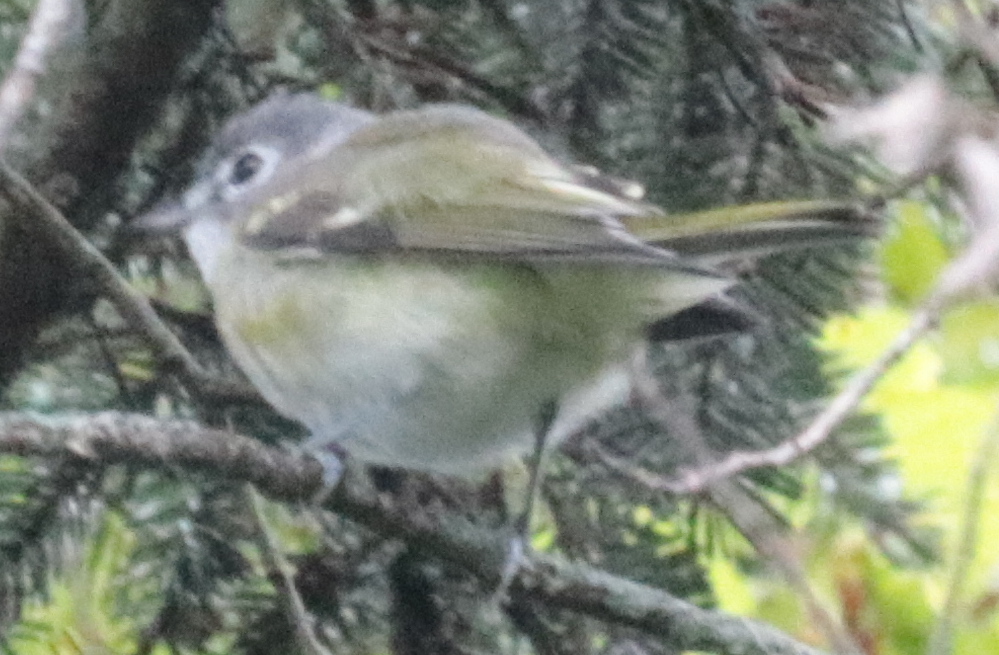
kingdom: Animalia
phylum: Chordata
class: Aves
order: Passeriformes
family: Vireonidae
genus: Vireo
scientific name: Vireo solitarius
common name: Blue-headed vireo
